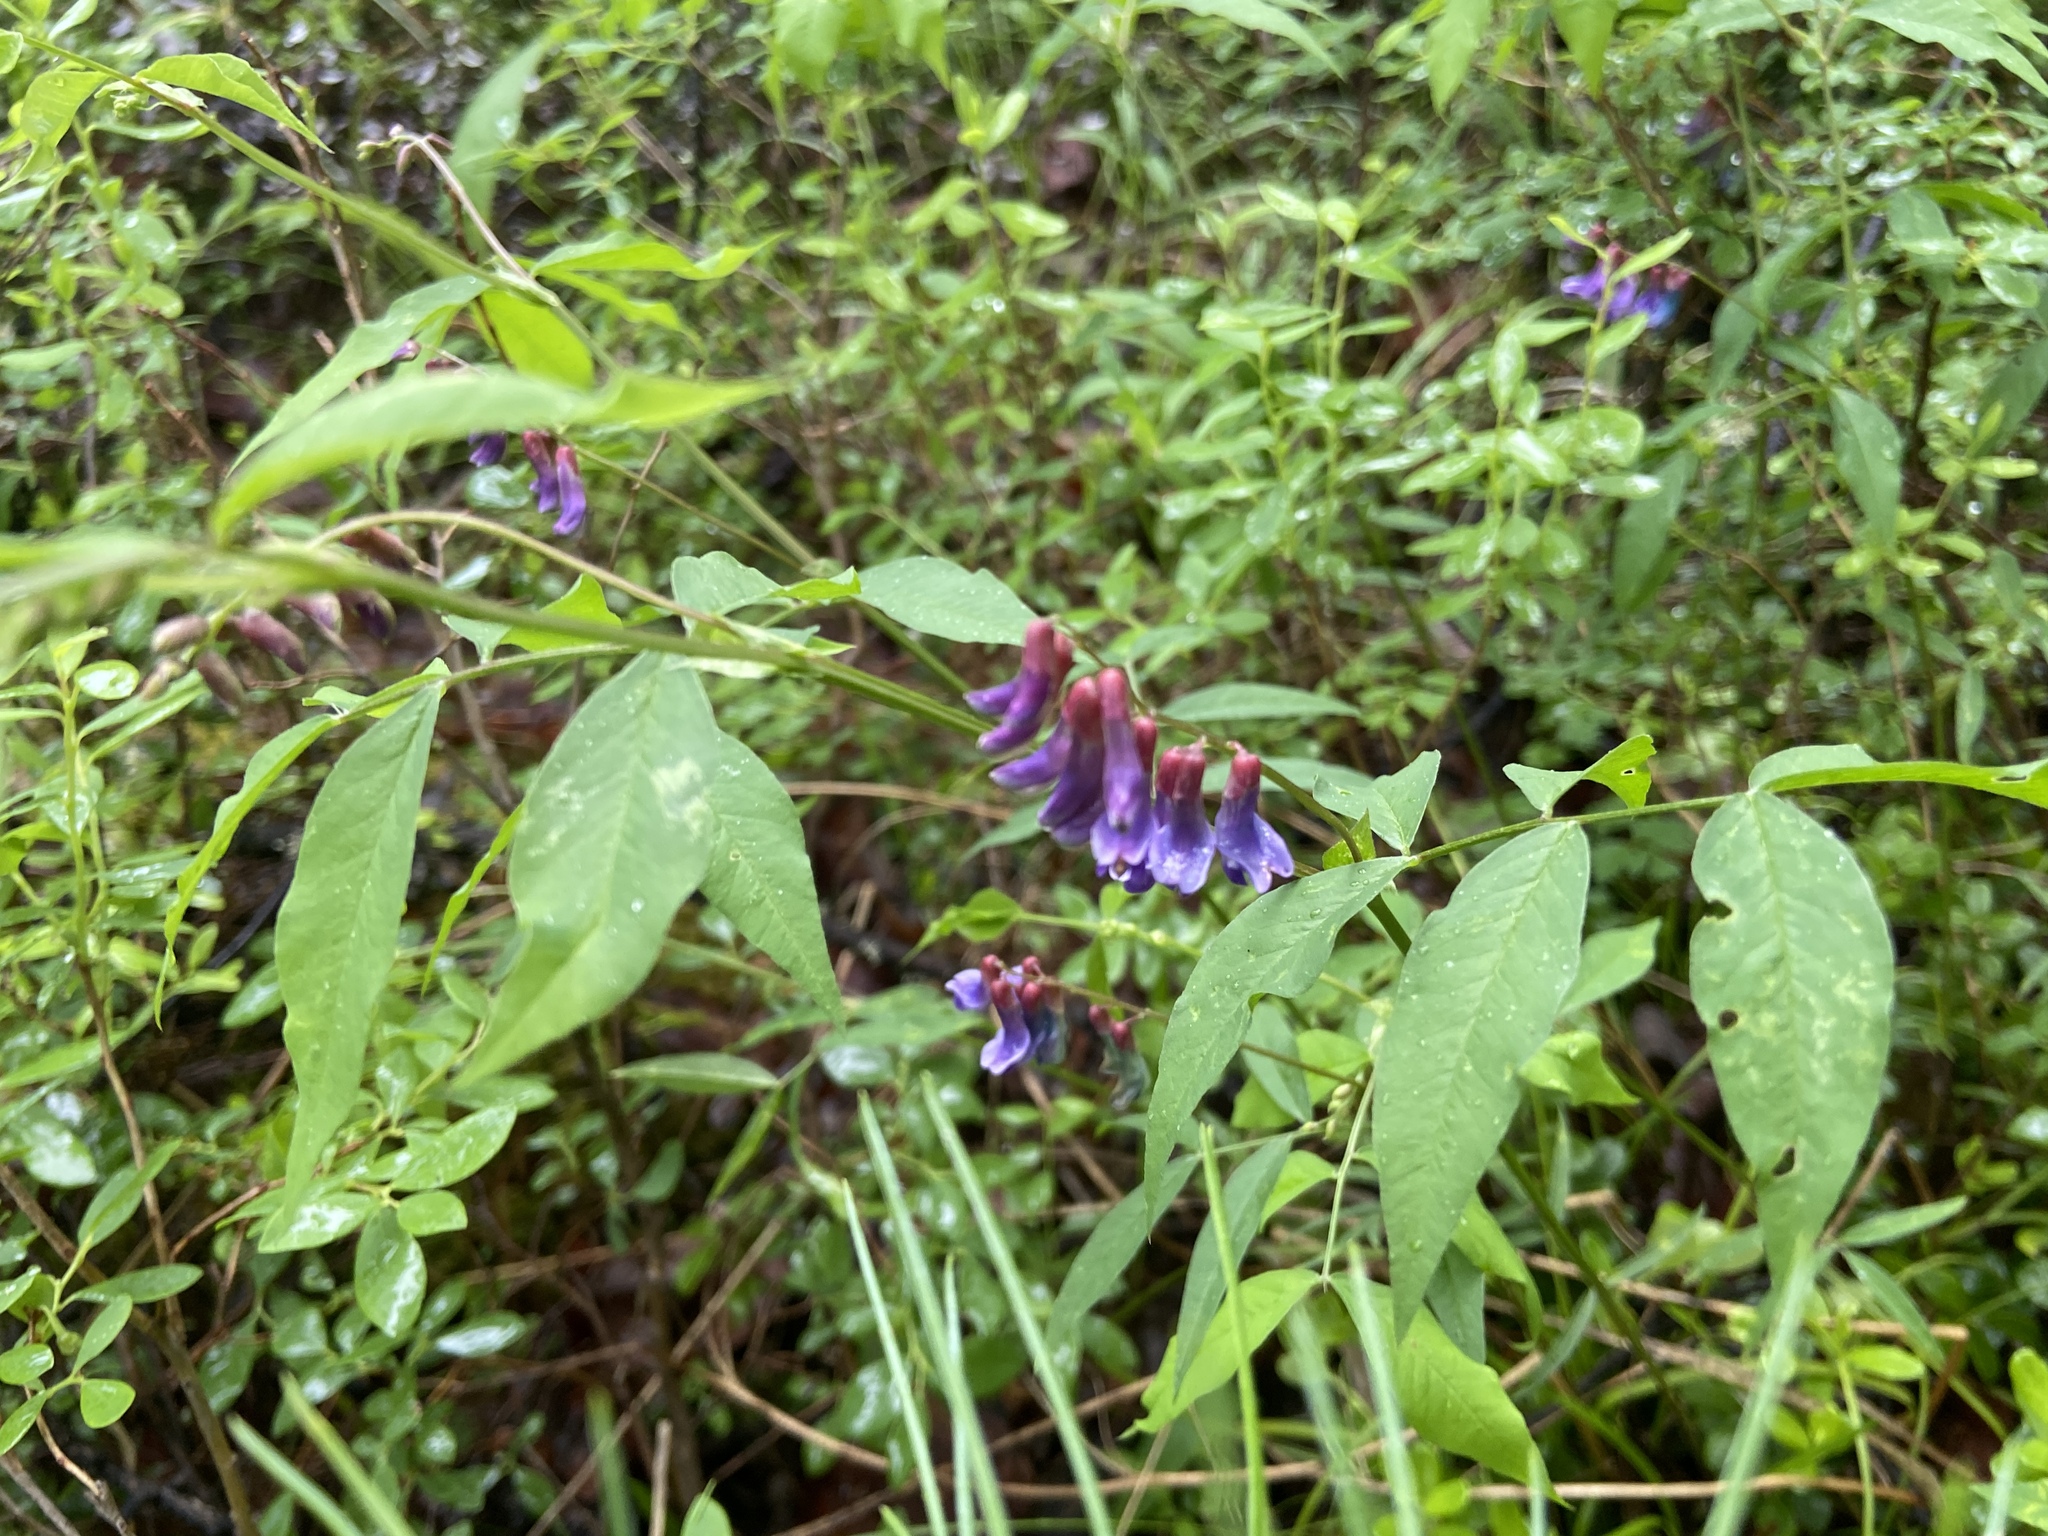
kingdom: Plantae
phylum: Tracheophyta
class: Magnoliopsida
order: Fabales
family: Fabaceae
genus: Vicia
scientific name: Vicia ramuliflora
